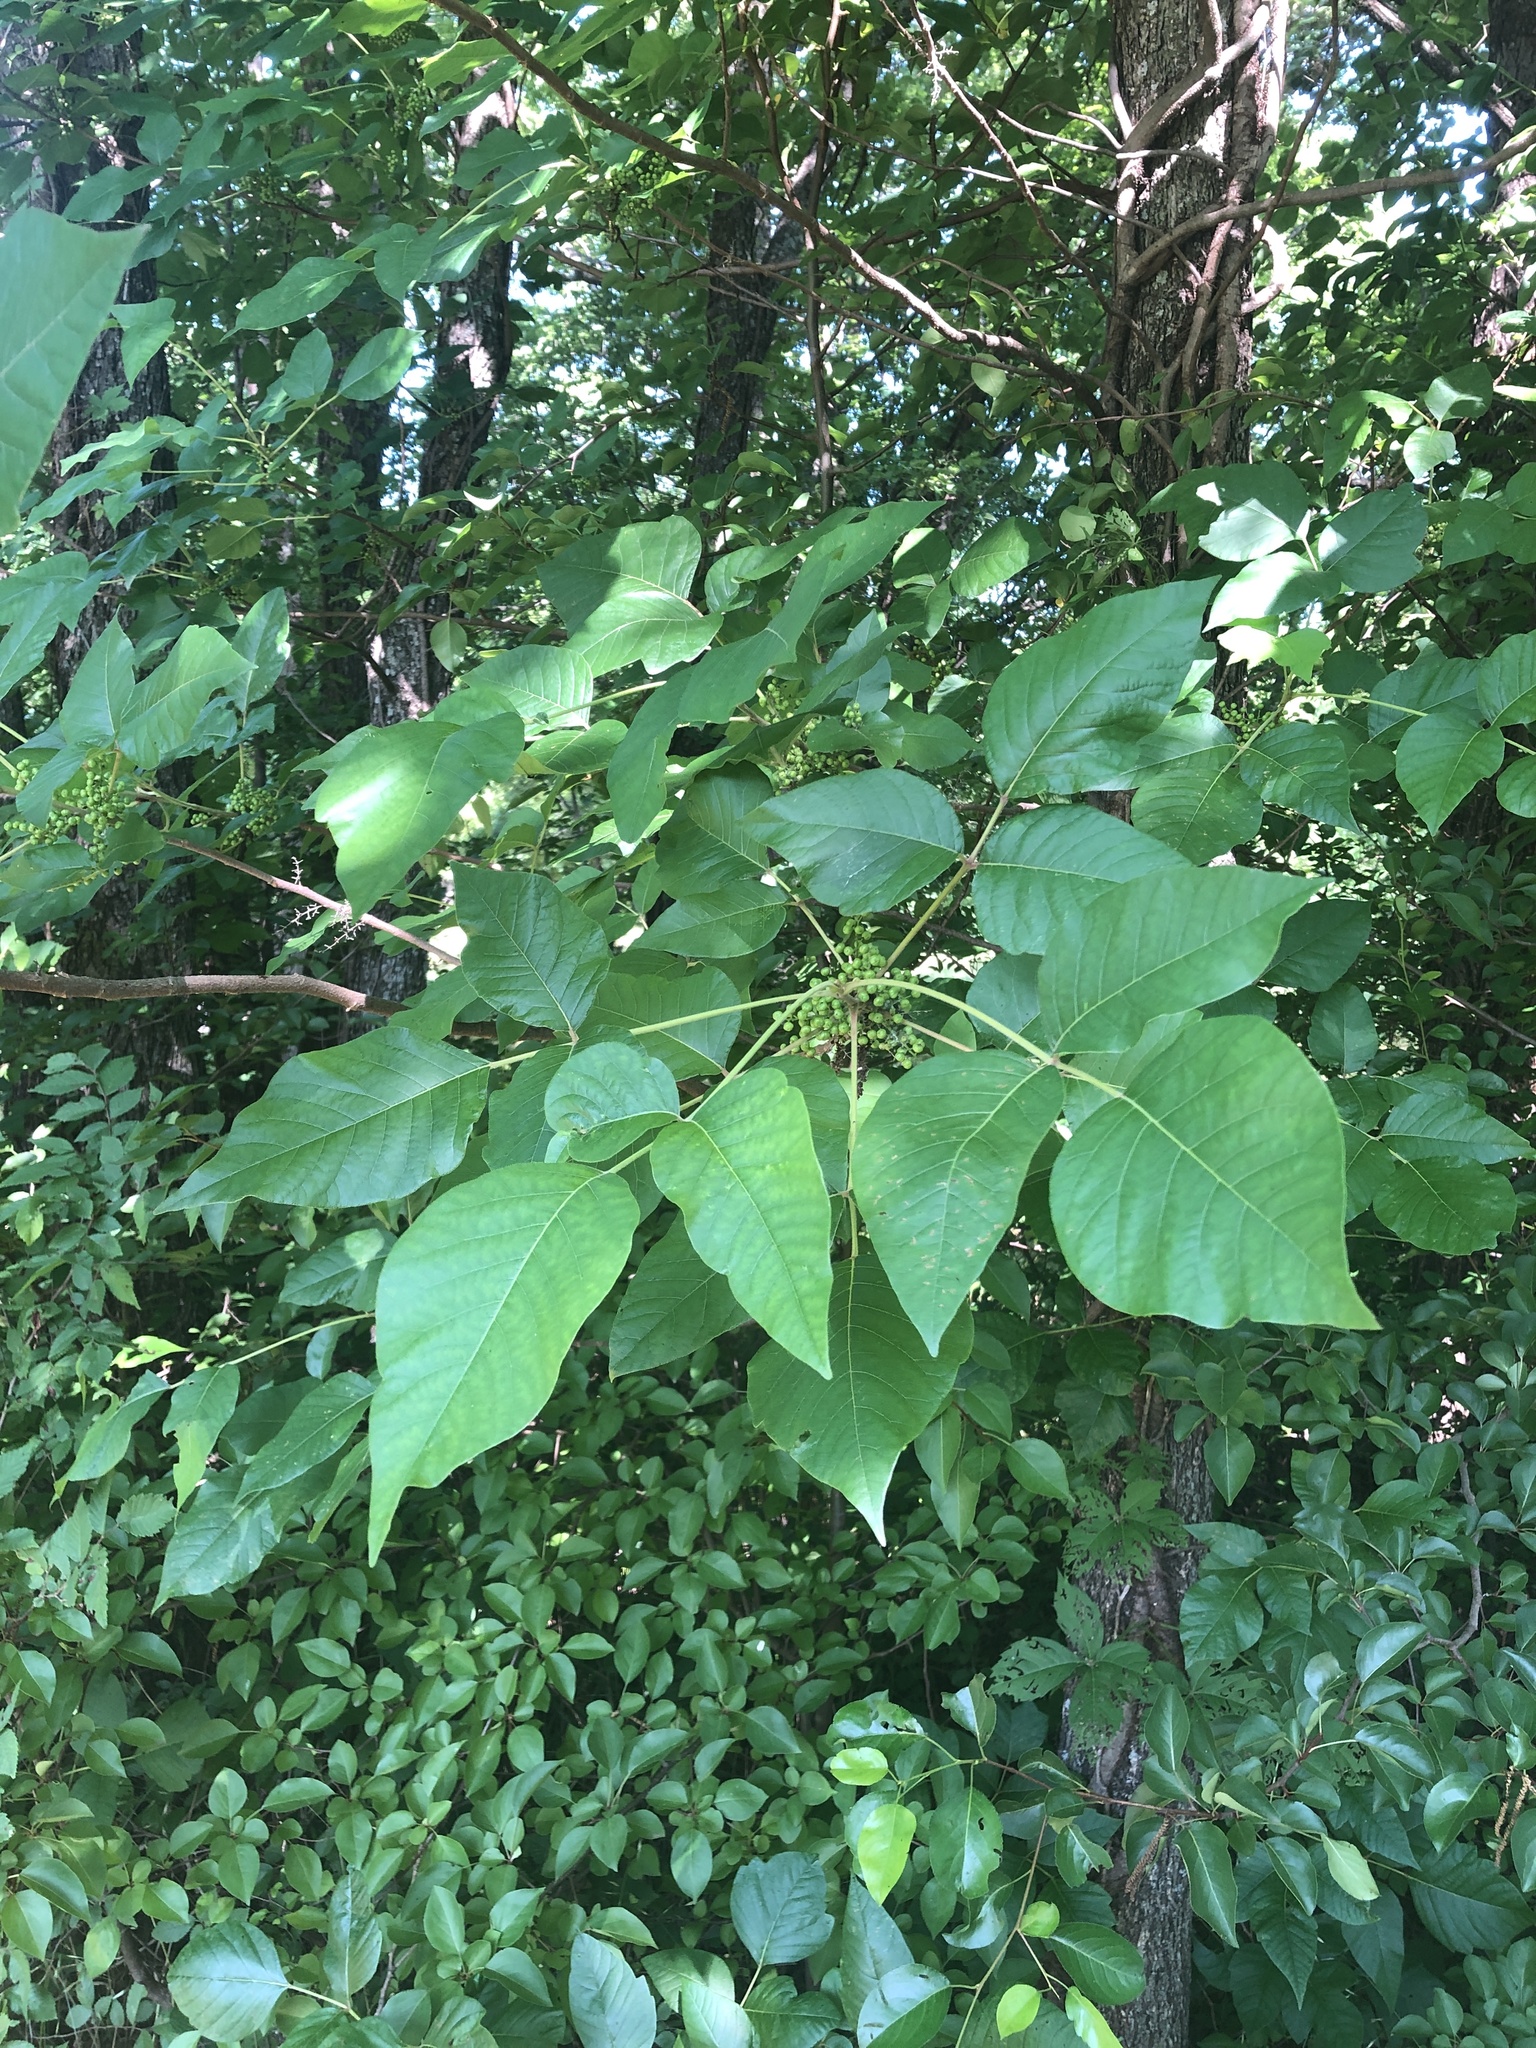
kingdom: Plantae
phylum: Tracheophyta
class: Magnoliopsida
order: Sapindales
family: Anacardiaceae
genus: Toxicodendron
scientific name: Toxicodendron radicans
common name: Poison ivy
